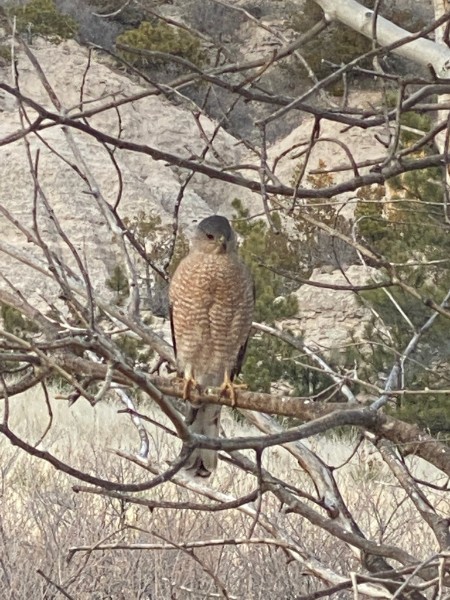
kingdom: Animalia
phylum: Chordata
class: Aves
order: Accipitriformes
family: Accipitridae
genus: Accipiter
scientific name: Accipiter cooperii
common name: Cooper's hawk
